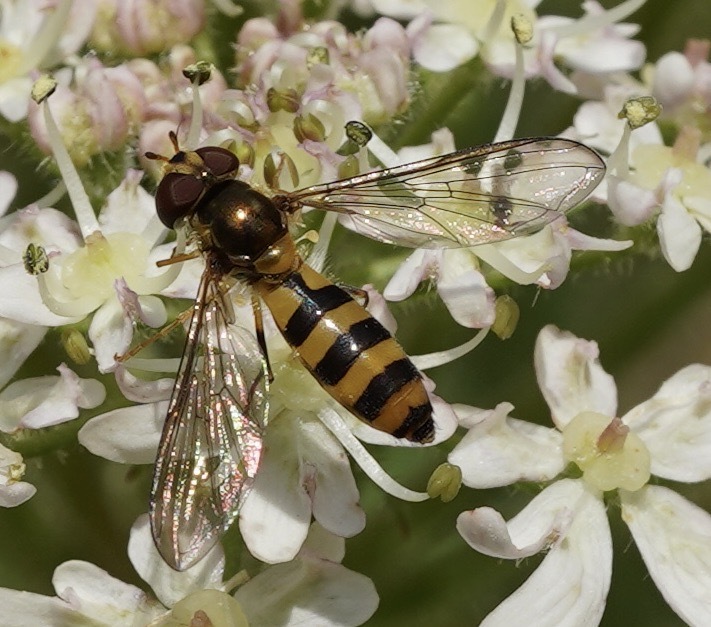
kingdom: Animalia
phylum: Arthropoda
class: Insecta
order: Diptera
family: Syrphidae
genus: Meliscaeva
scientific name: Meliscaeva cinctella
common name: American thintail fly
